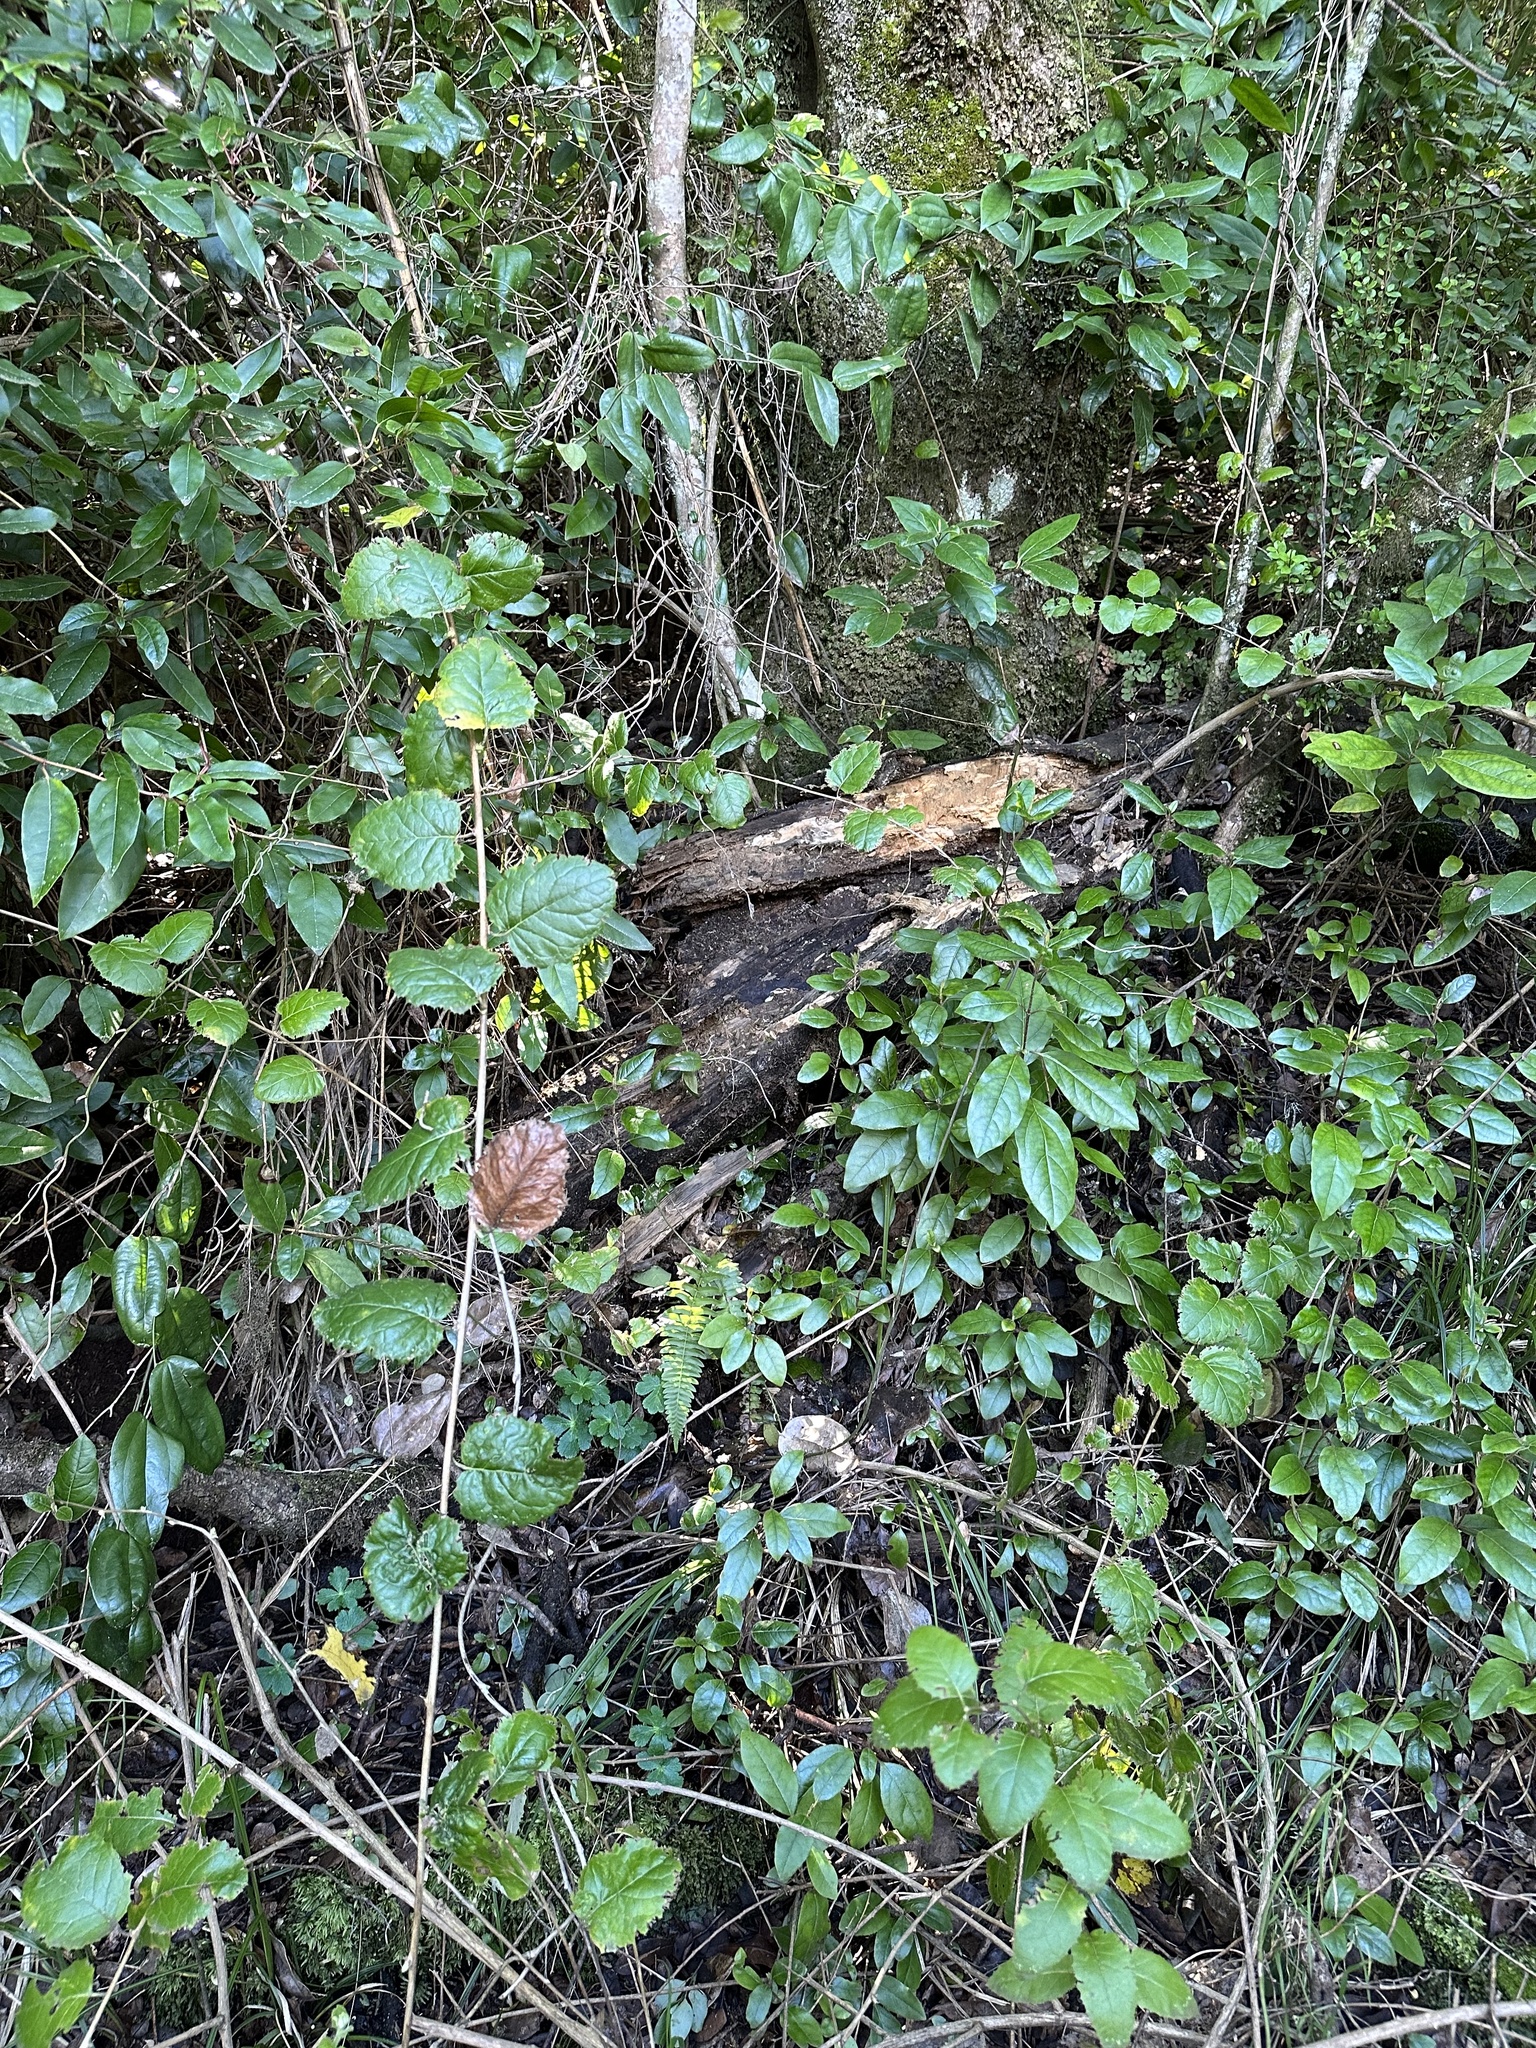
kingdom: Plantae
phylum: Tracheophyta
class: Magnoliopsida
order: Asterales
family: Asteraceae
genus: Proustia
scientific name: Proustia pyrifolia
